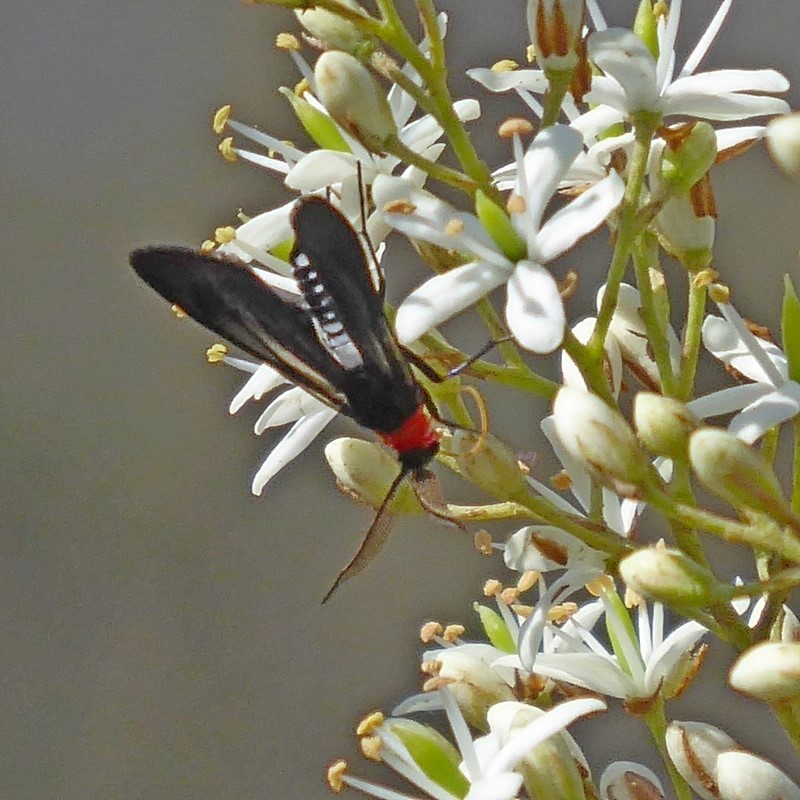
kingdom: Animalia
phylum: Arthropoda
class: Insecta
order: Lepidoptera
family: Zygaenidae
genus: Hestiochora
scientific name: Hestiochora furcata
